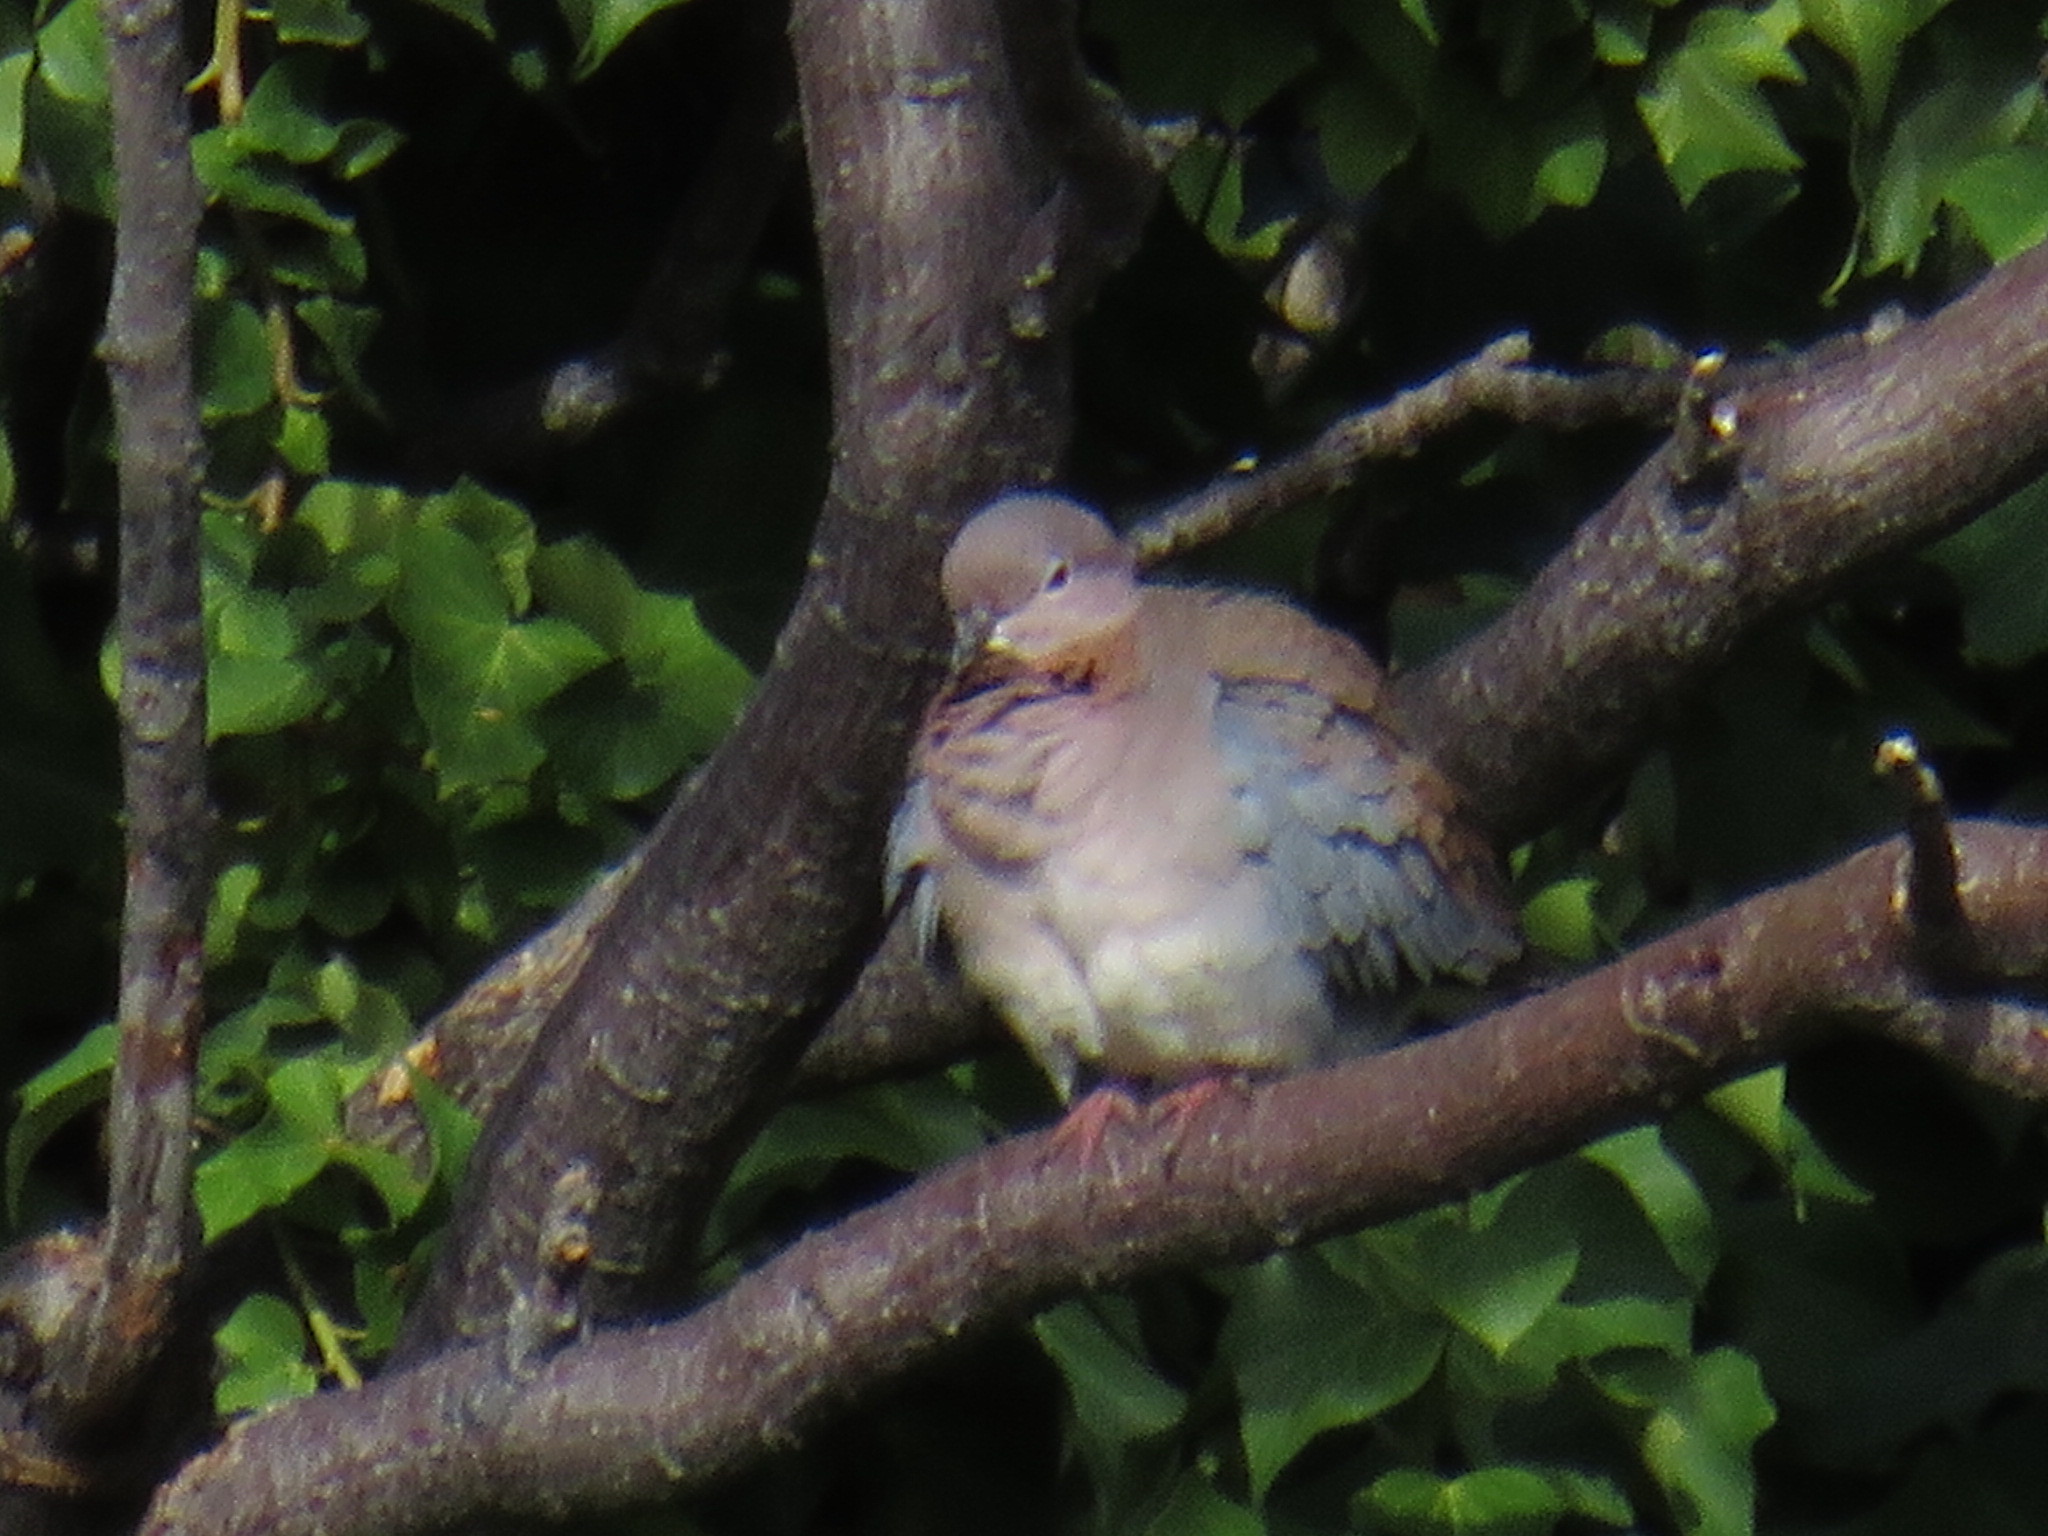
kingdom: Animalia
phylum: Chordata
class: Aves
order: Columbiformes
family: Columbidae
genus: Spilopelia
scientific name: Spilopelia senegalensis
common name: Laughing dove
